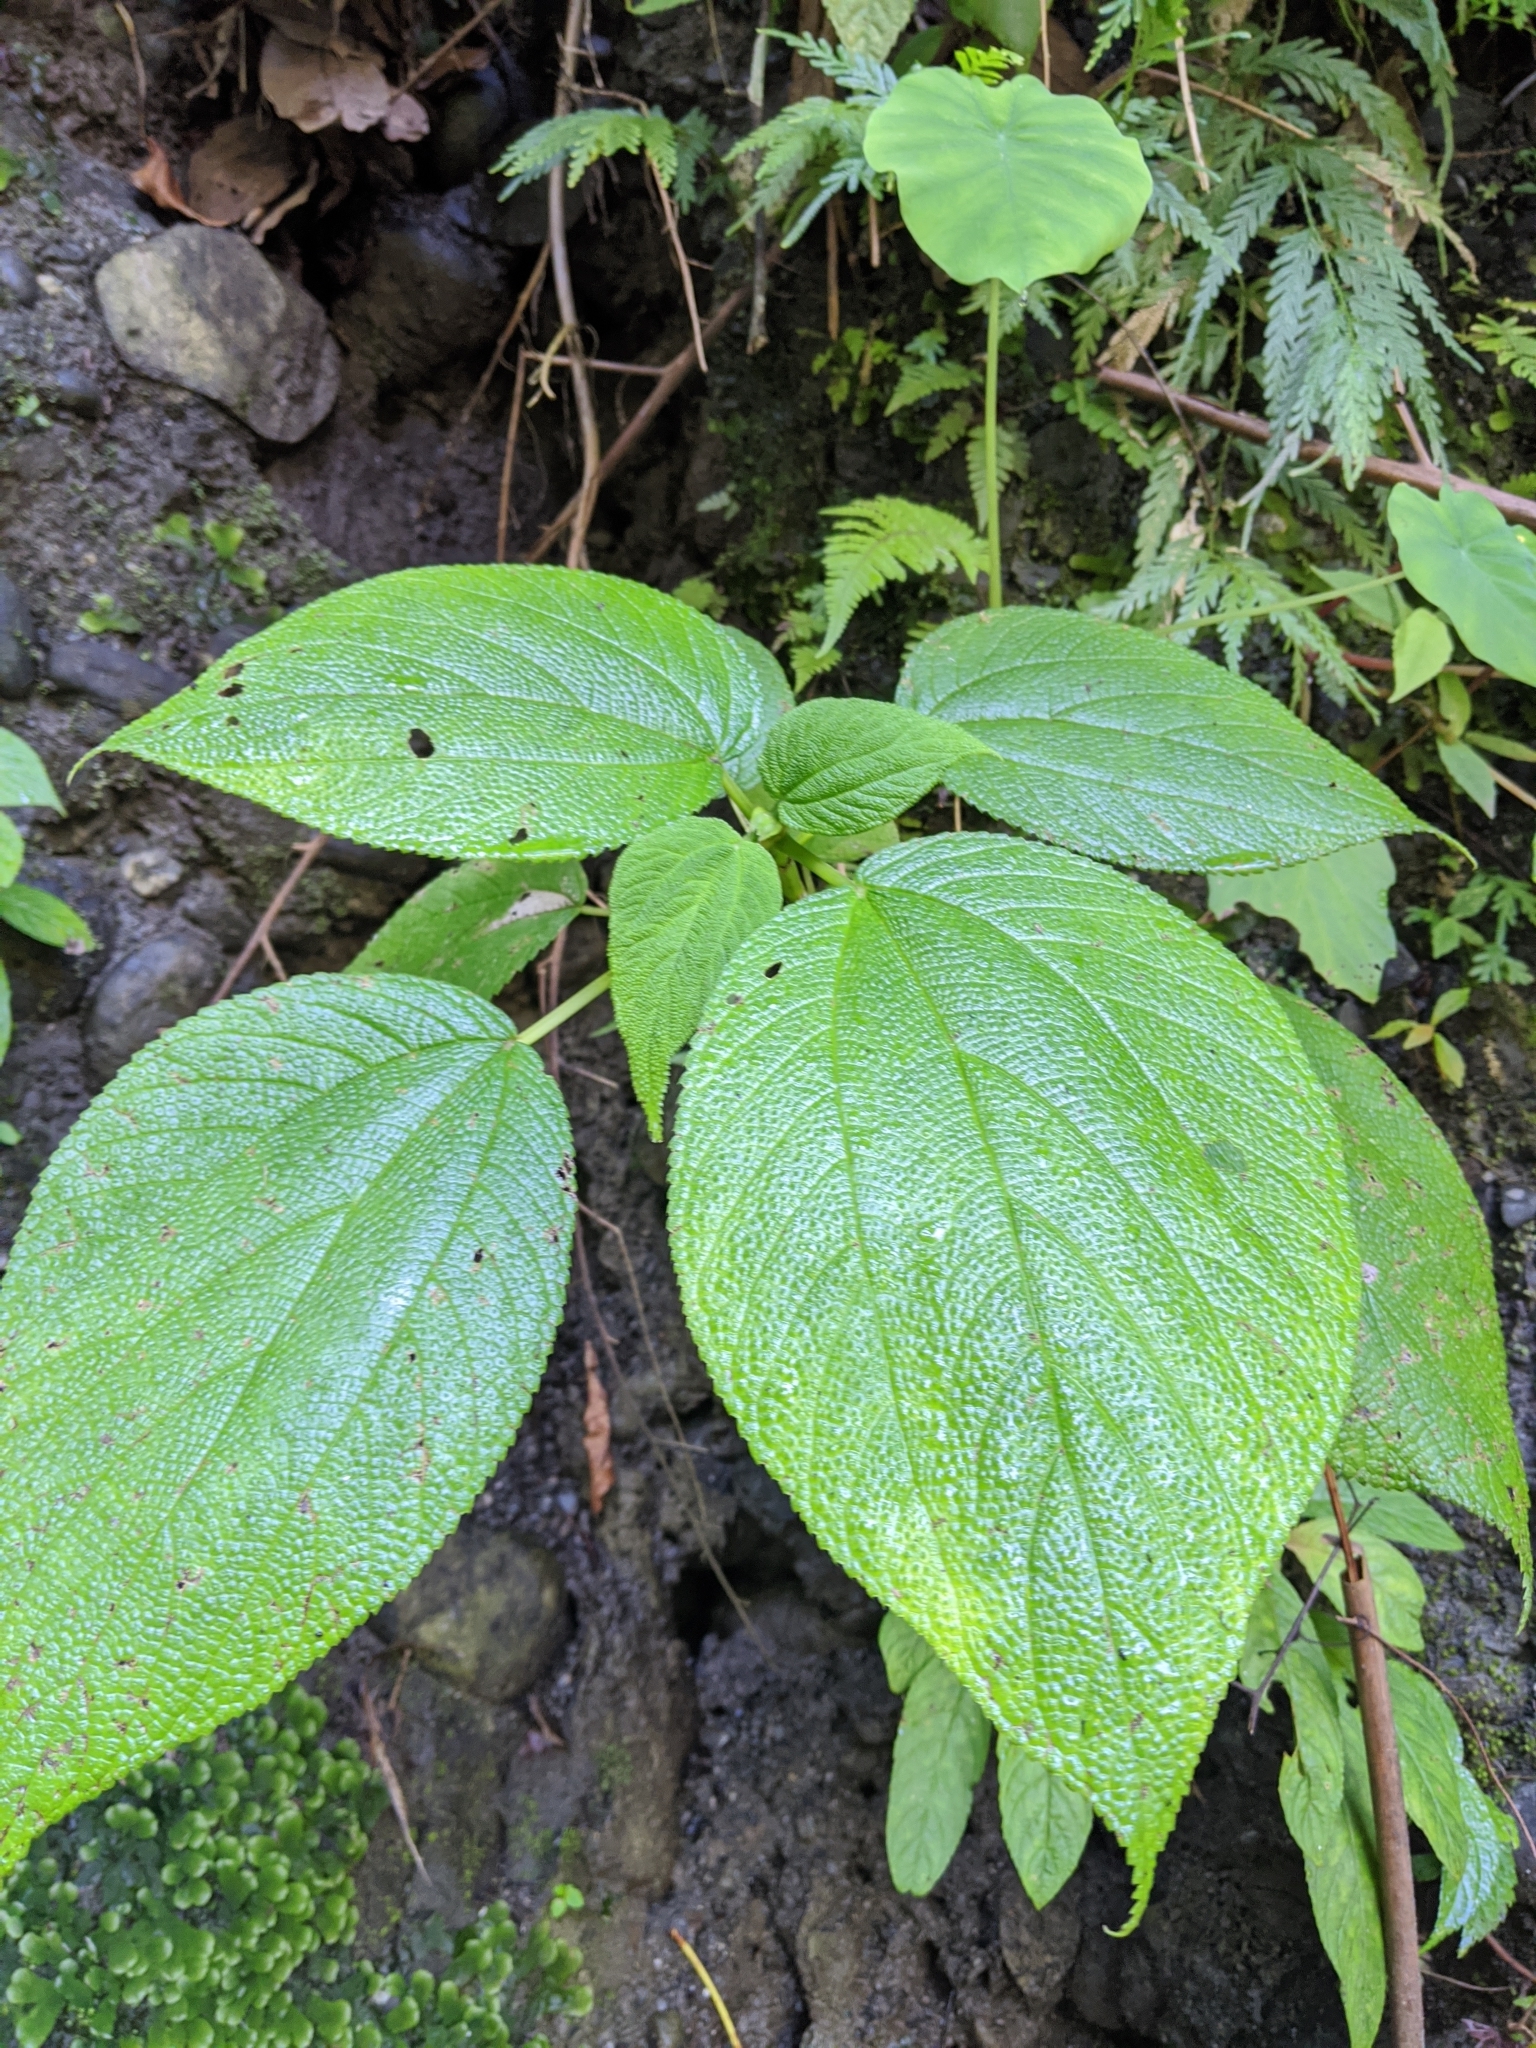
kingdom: Plantae
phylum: Tracheophyta
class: Magnoliopsida
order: Rosales
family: Urticaceae
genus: Cypholophus
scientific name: Cypholophus moluccanus
